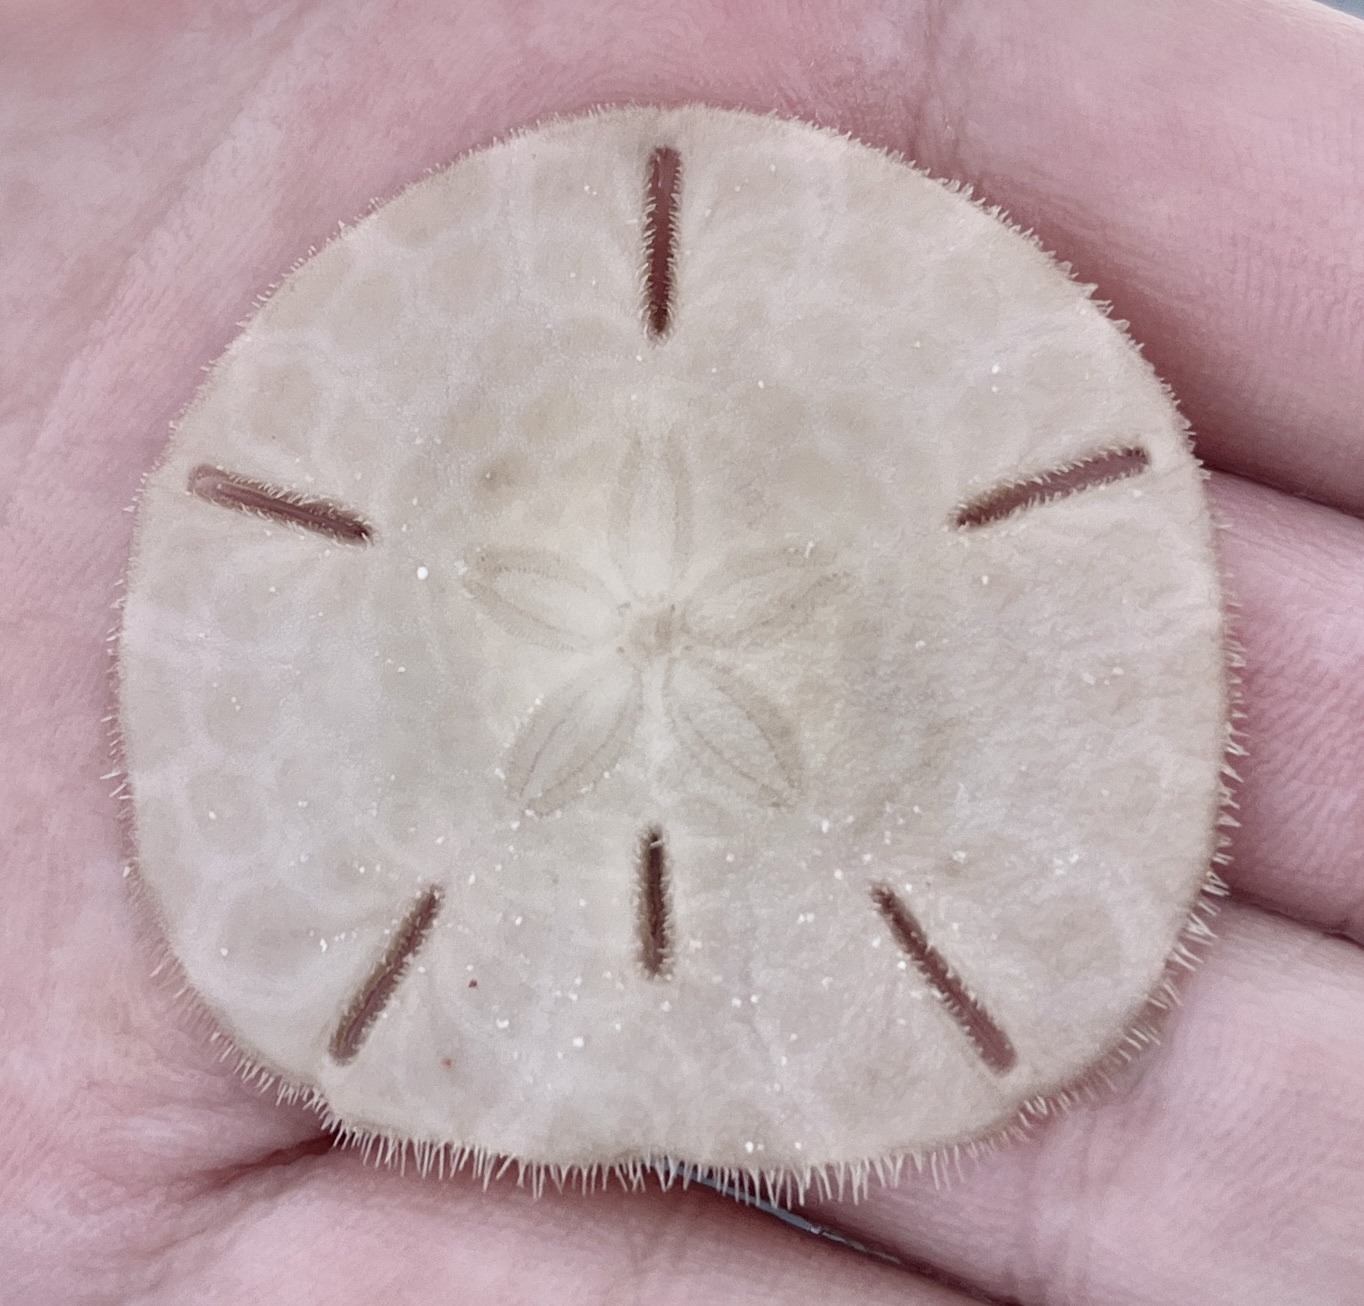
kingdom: Animalia
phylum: Echinodermata
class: Echinoidea
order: Echinolampadacea
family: Mellitidae
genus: Leodia
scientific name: Leodia sexiesperforata
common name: Sand dollar
